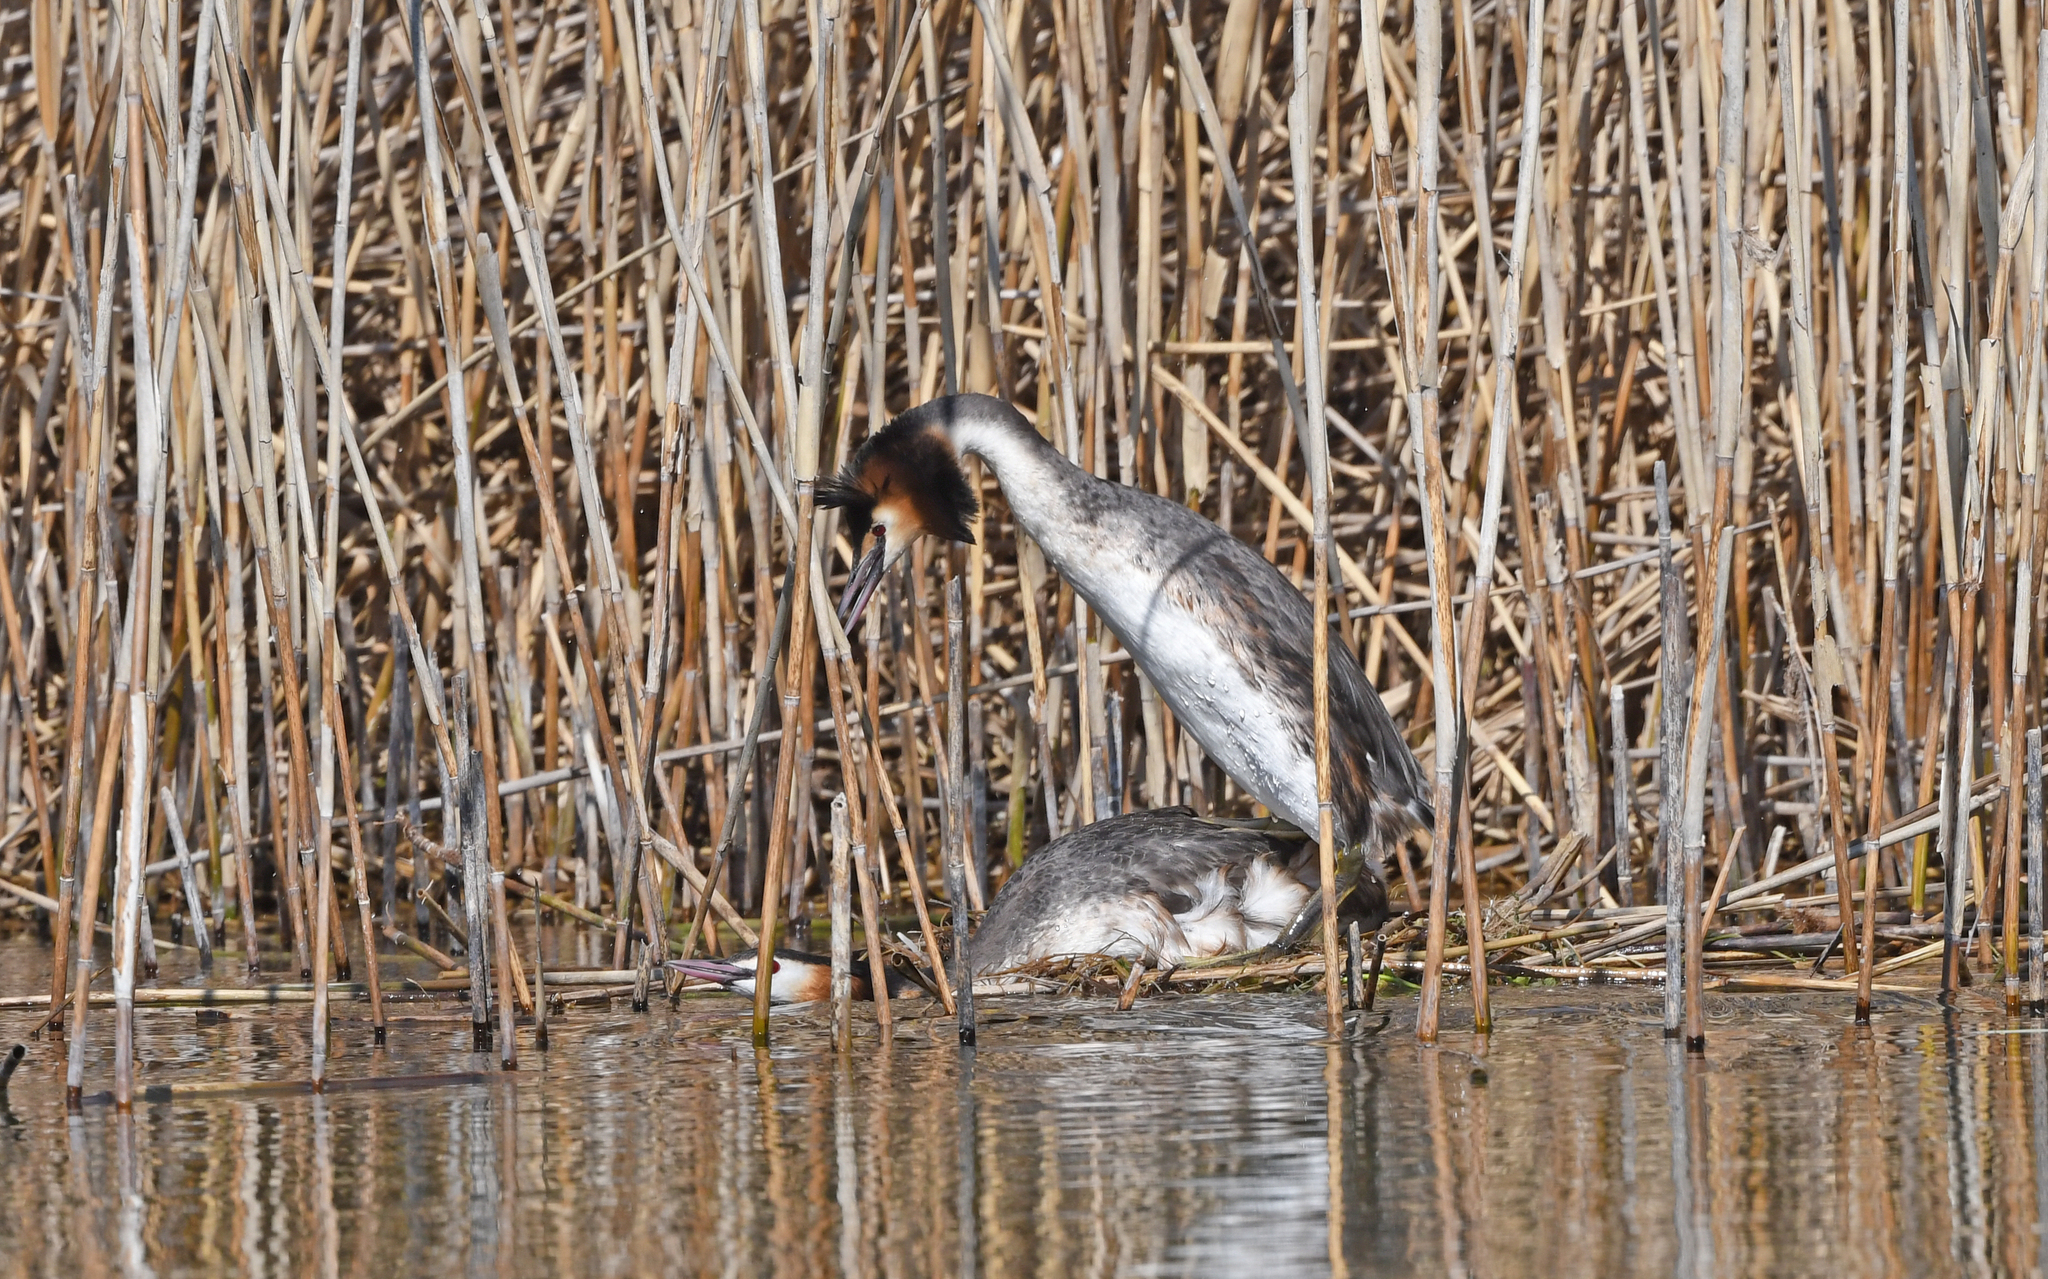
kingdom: Animalia
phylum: Chordata
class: Aves
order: Podicipediformes
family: Podicipedidae
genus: Podiceps
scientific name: Podiceps cristatus
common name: Great crested grebe
